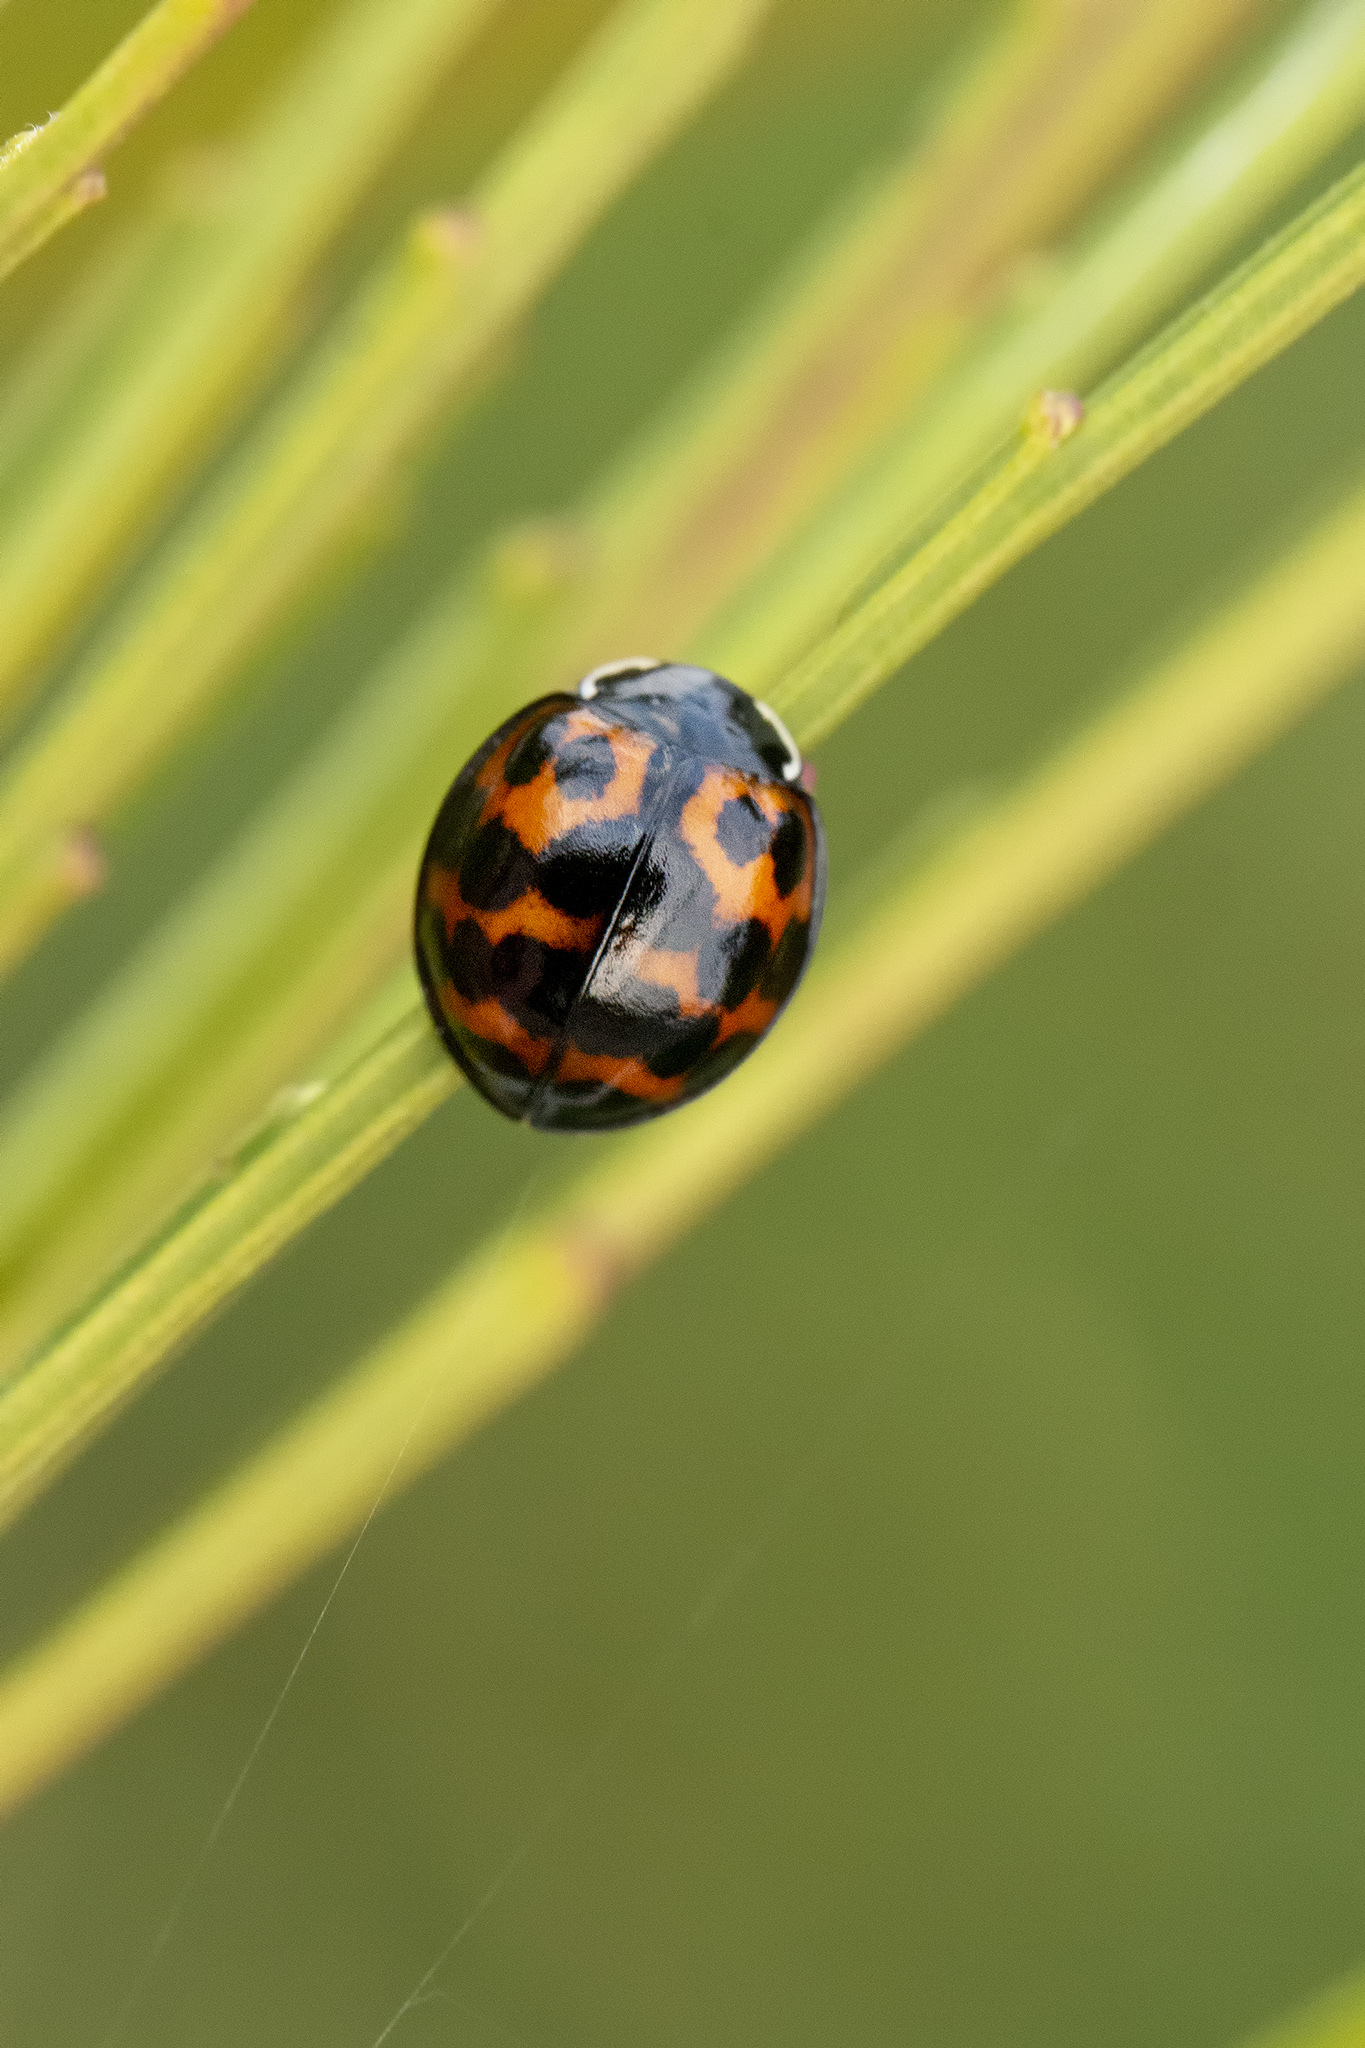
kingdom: Animalia
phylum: Arthropoda
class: Insecta
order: Coleoptera
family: Coccinellidae
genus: Harmonia
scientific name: Harmonia axyridis
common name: Harlequin ladybird
